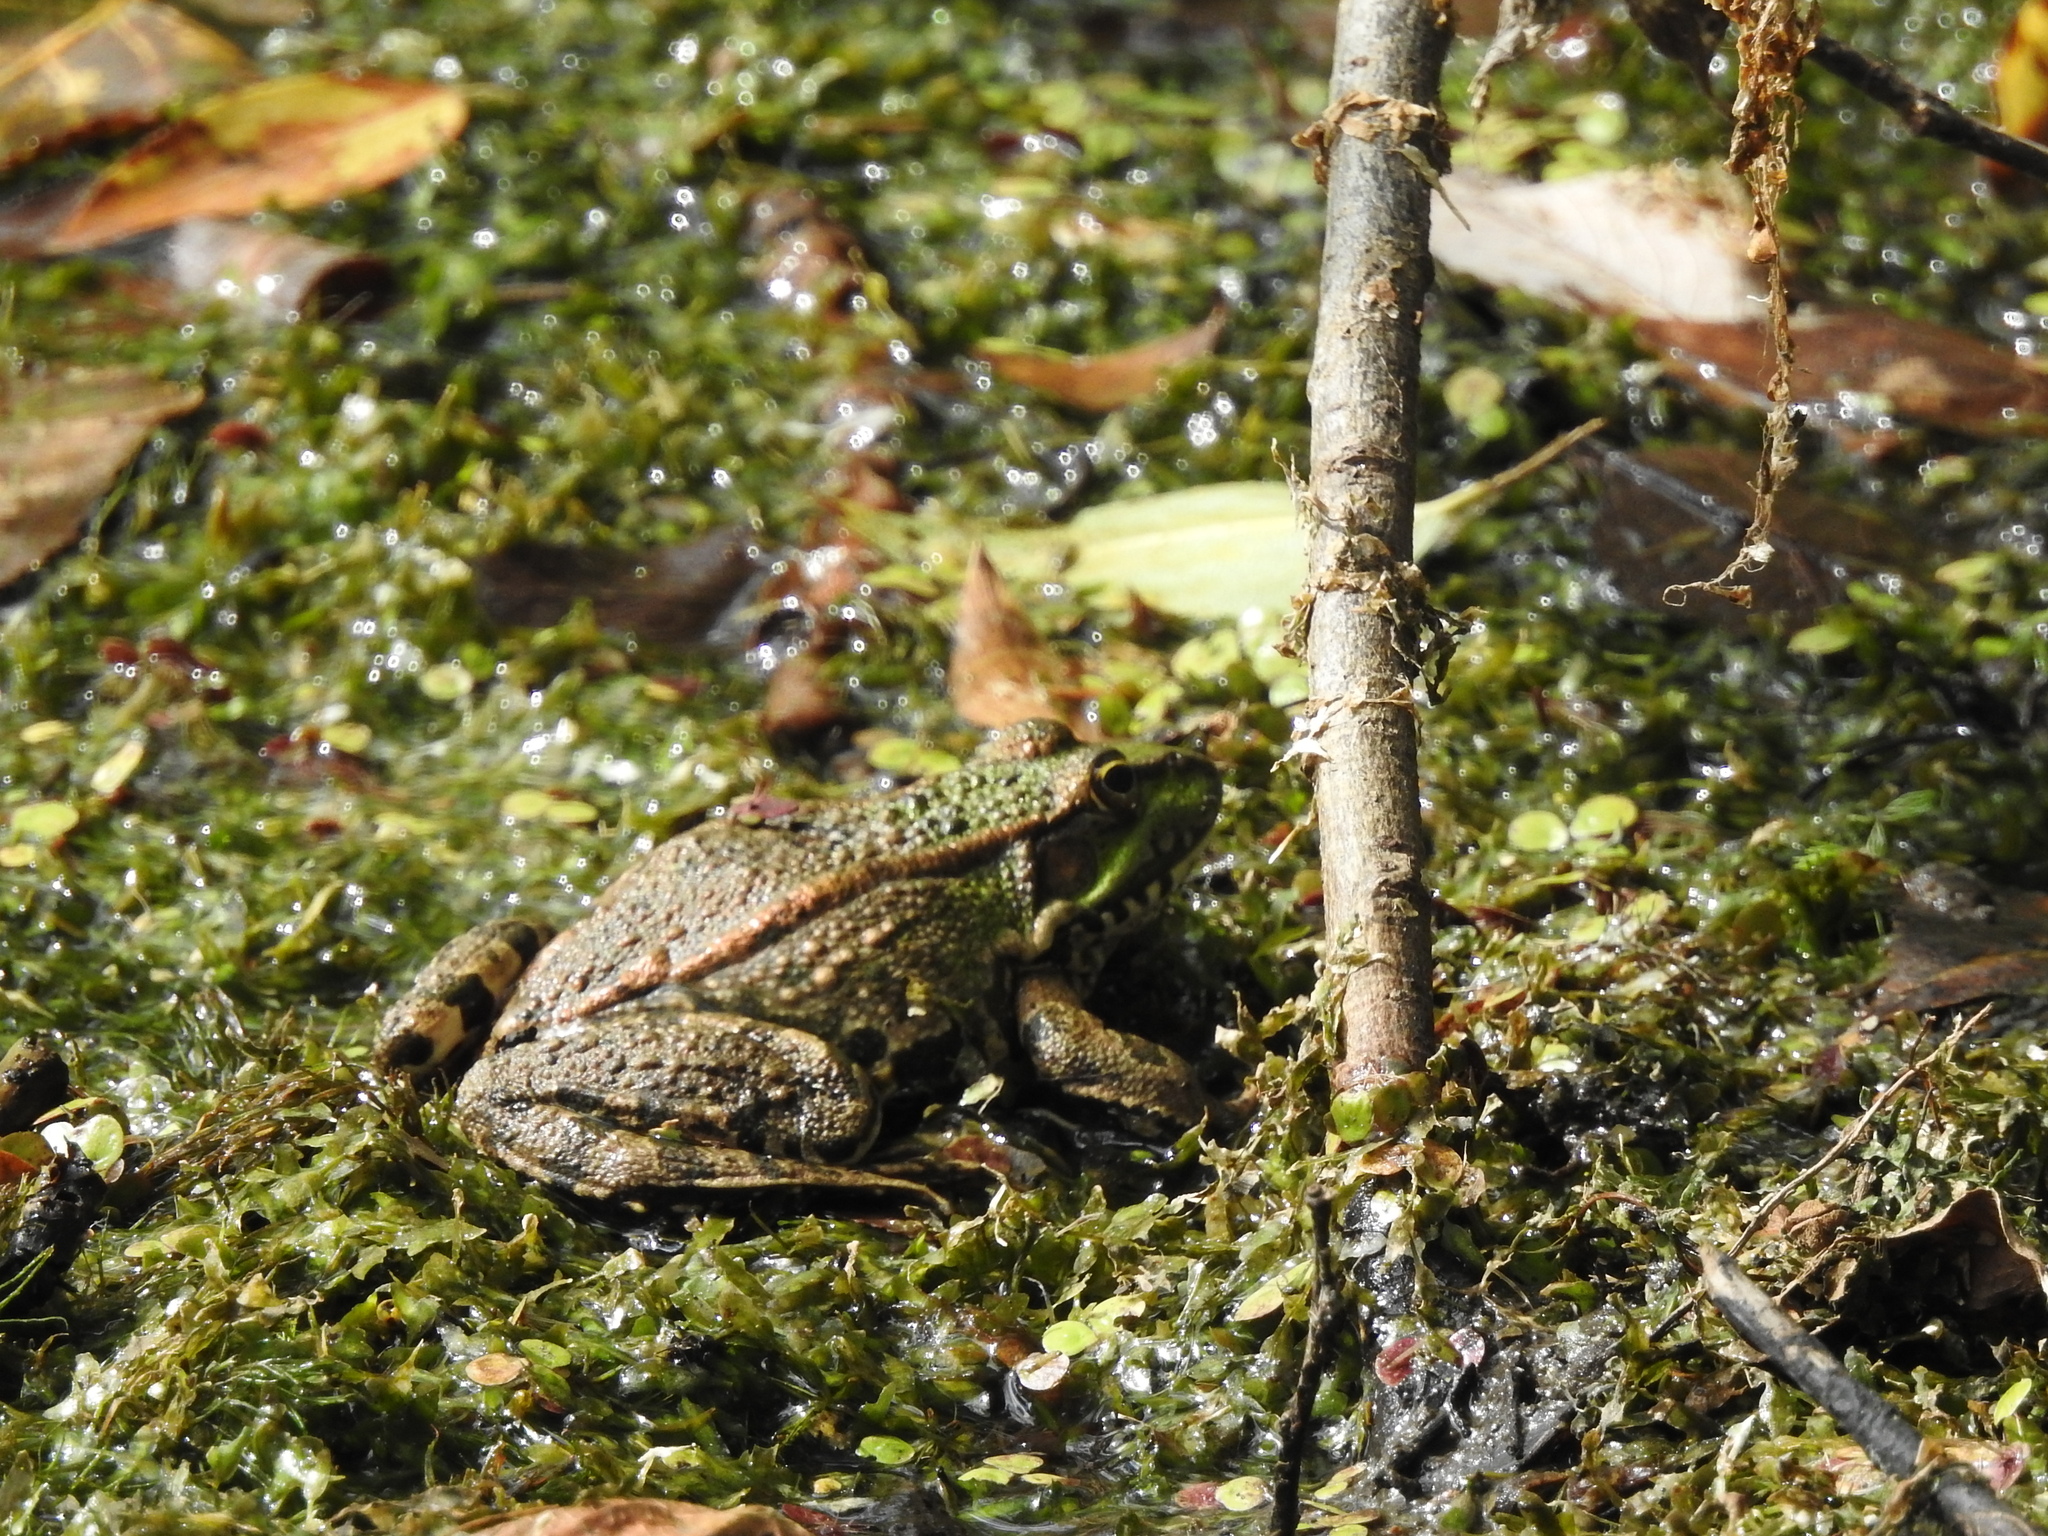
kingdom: Animalia
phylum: Chordata
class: Amphibia
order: Anura
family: Ranidae
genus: Pelophylax
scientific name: Pelophylax ridibundus
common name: Marsh frog
